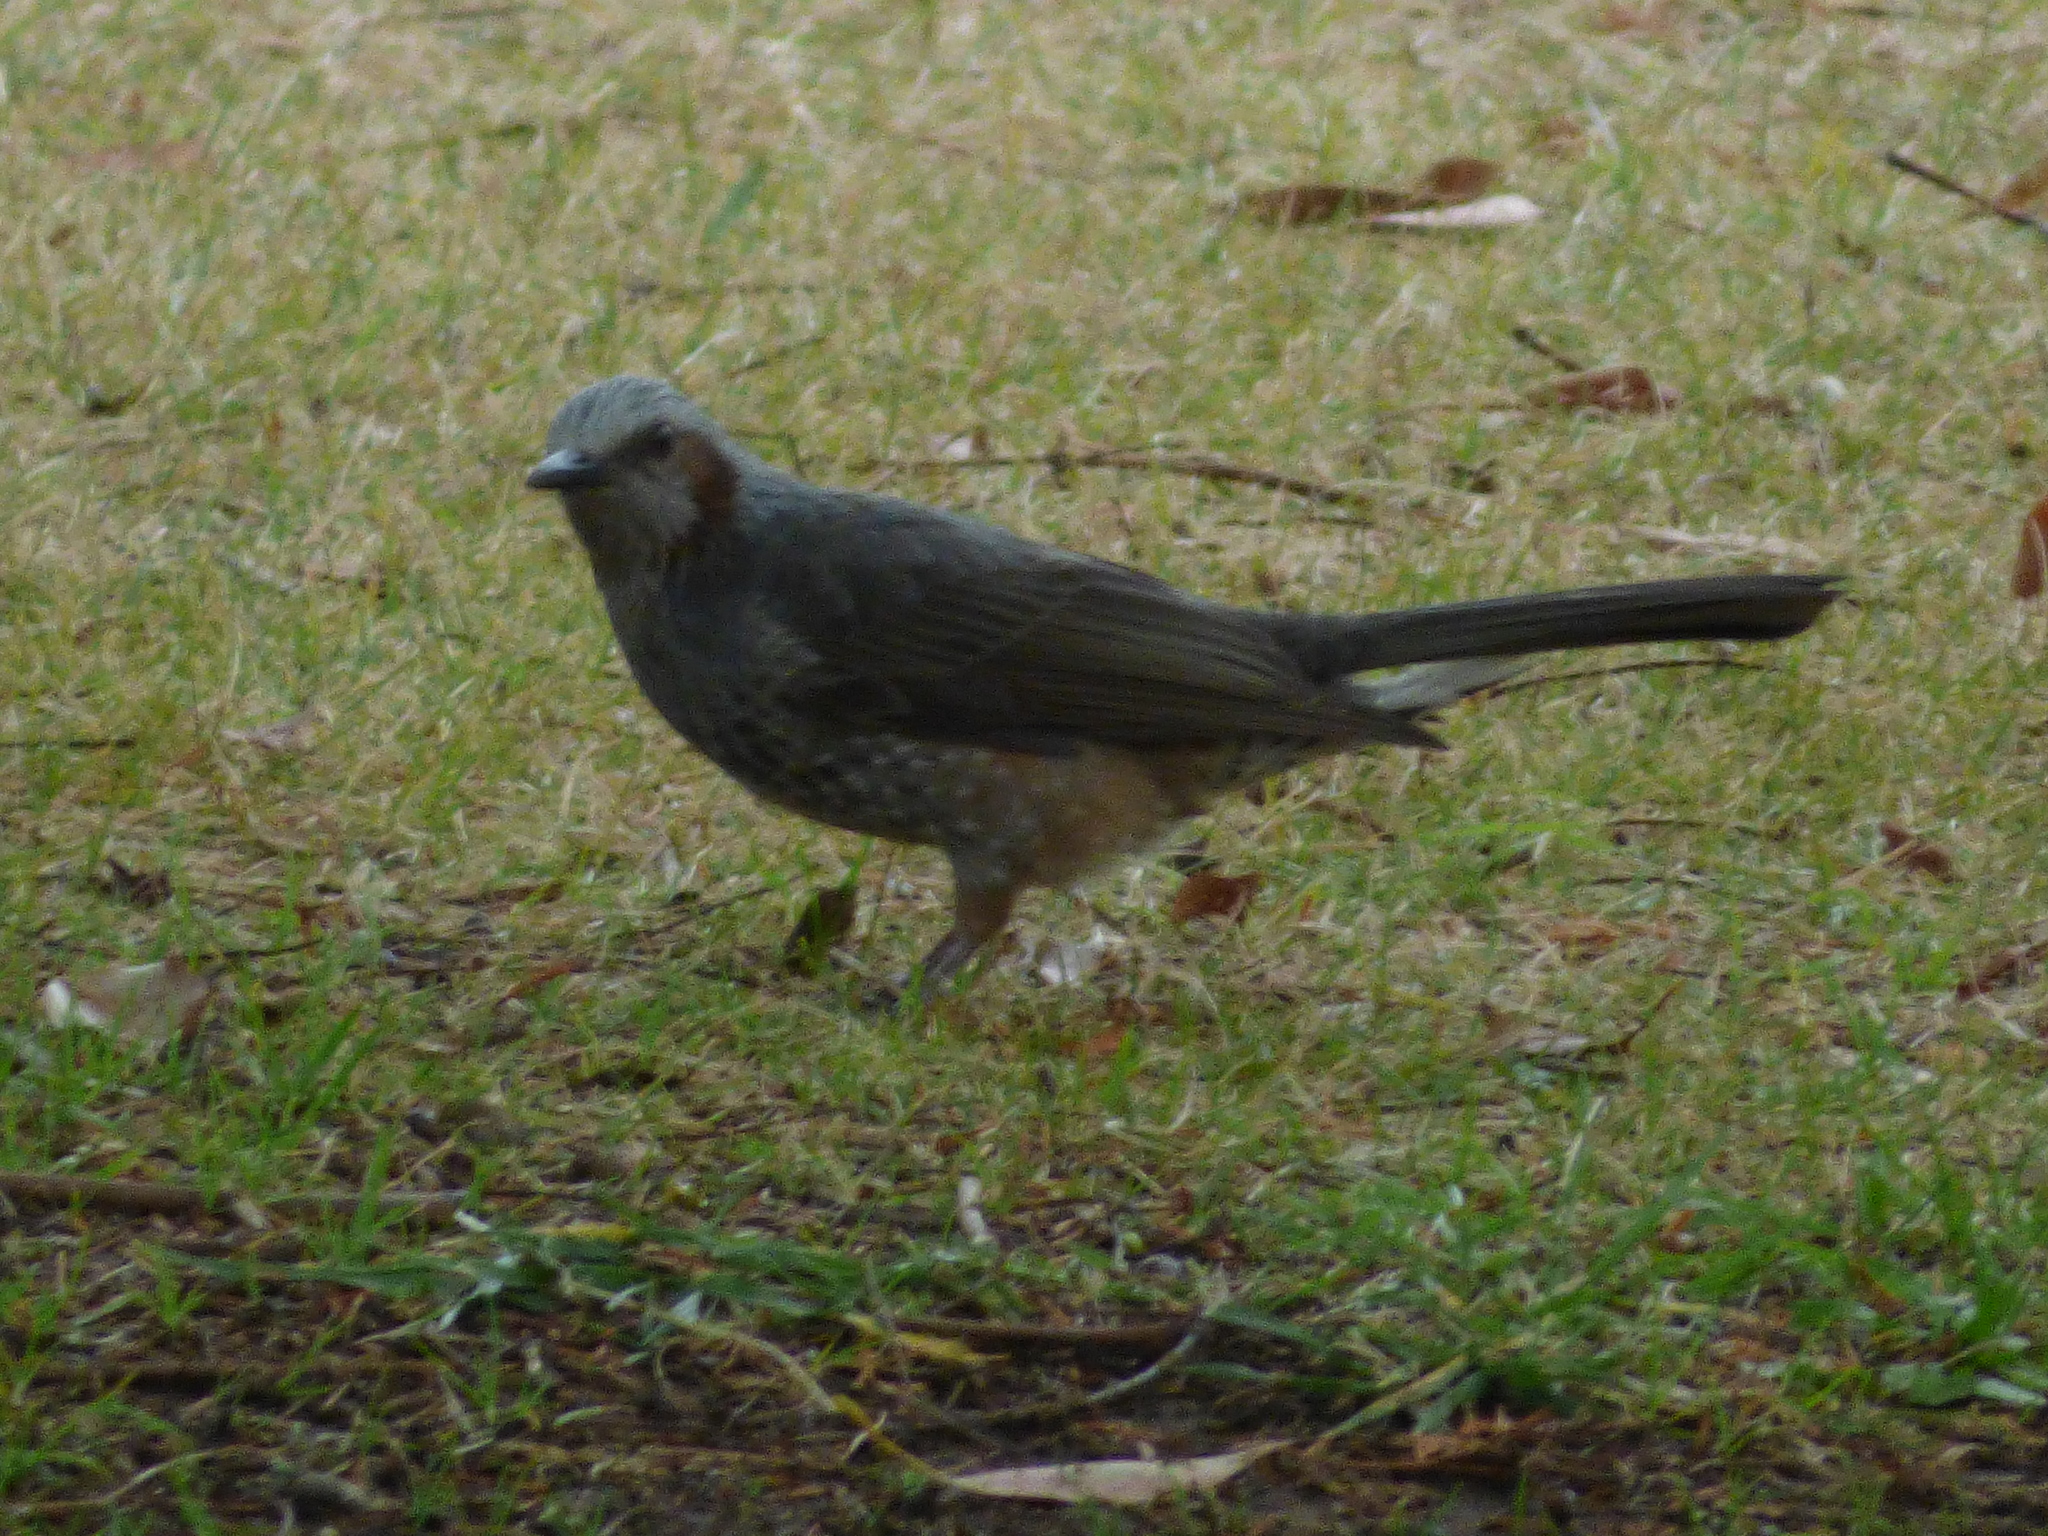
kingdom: Animalia
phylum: Chordata
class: Aves
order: Passeriformes
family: Pycnonotidae
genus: Hypsipetes
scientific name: Hypsipetes amaurotis
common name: Brown-eared bulbul
